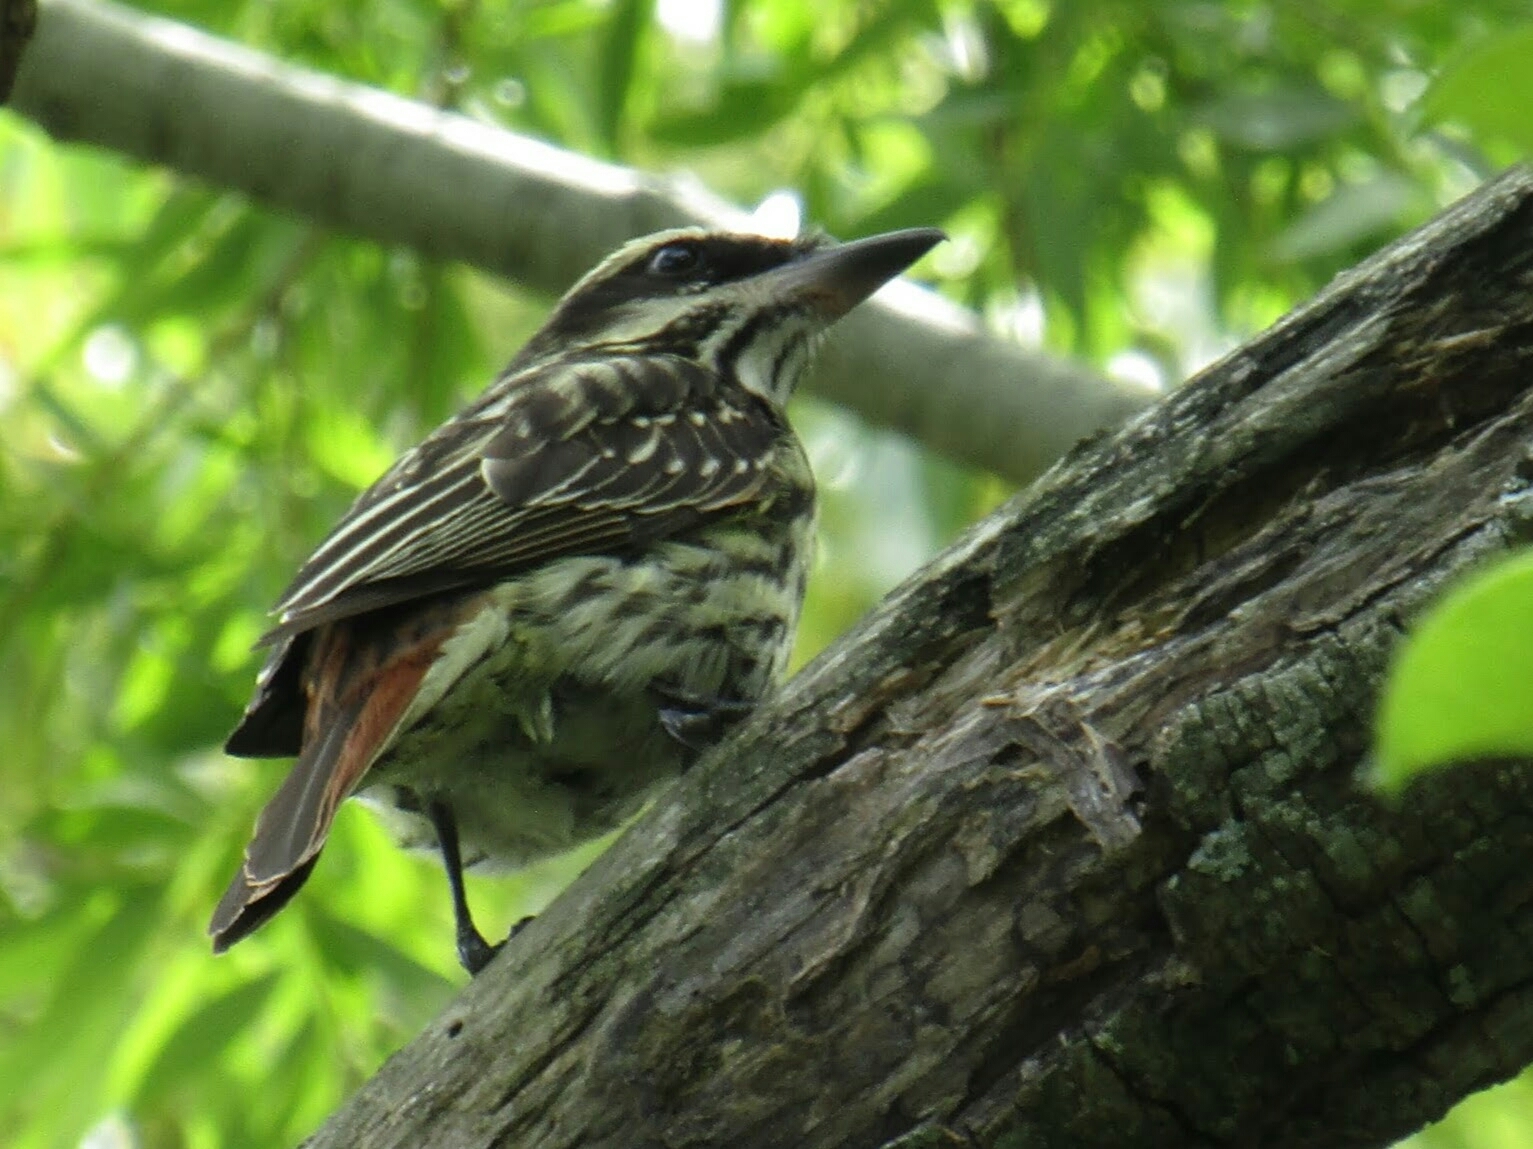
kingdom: Animalia
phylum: Chordata
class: Aves
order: Passeriformes
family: Tyrannidae
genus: Myiodynastes
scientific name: Myiodynastes maculatus
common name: Streaked flycatcher
